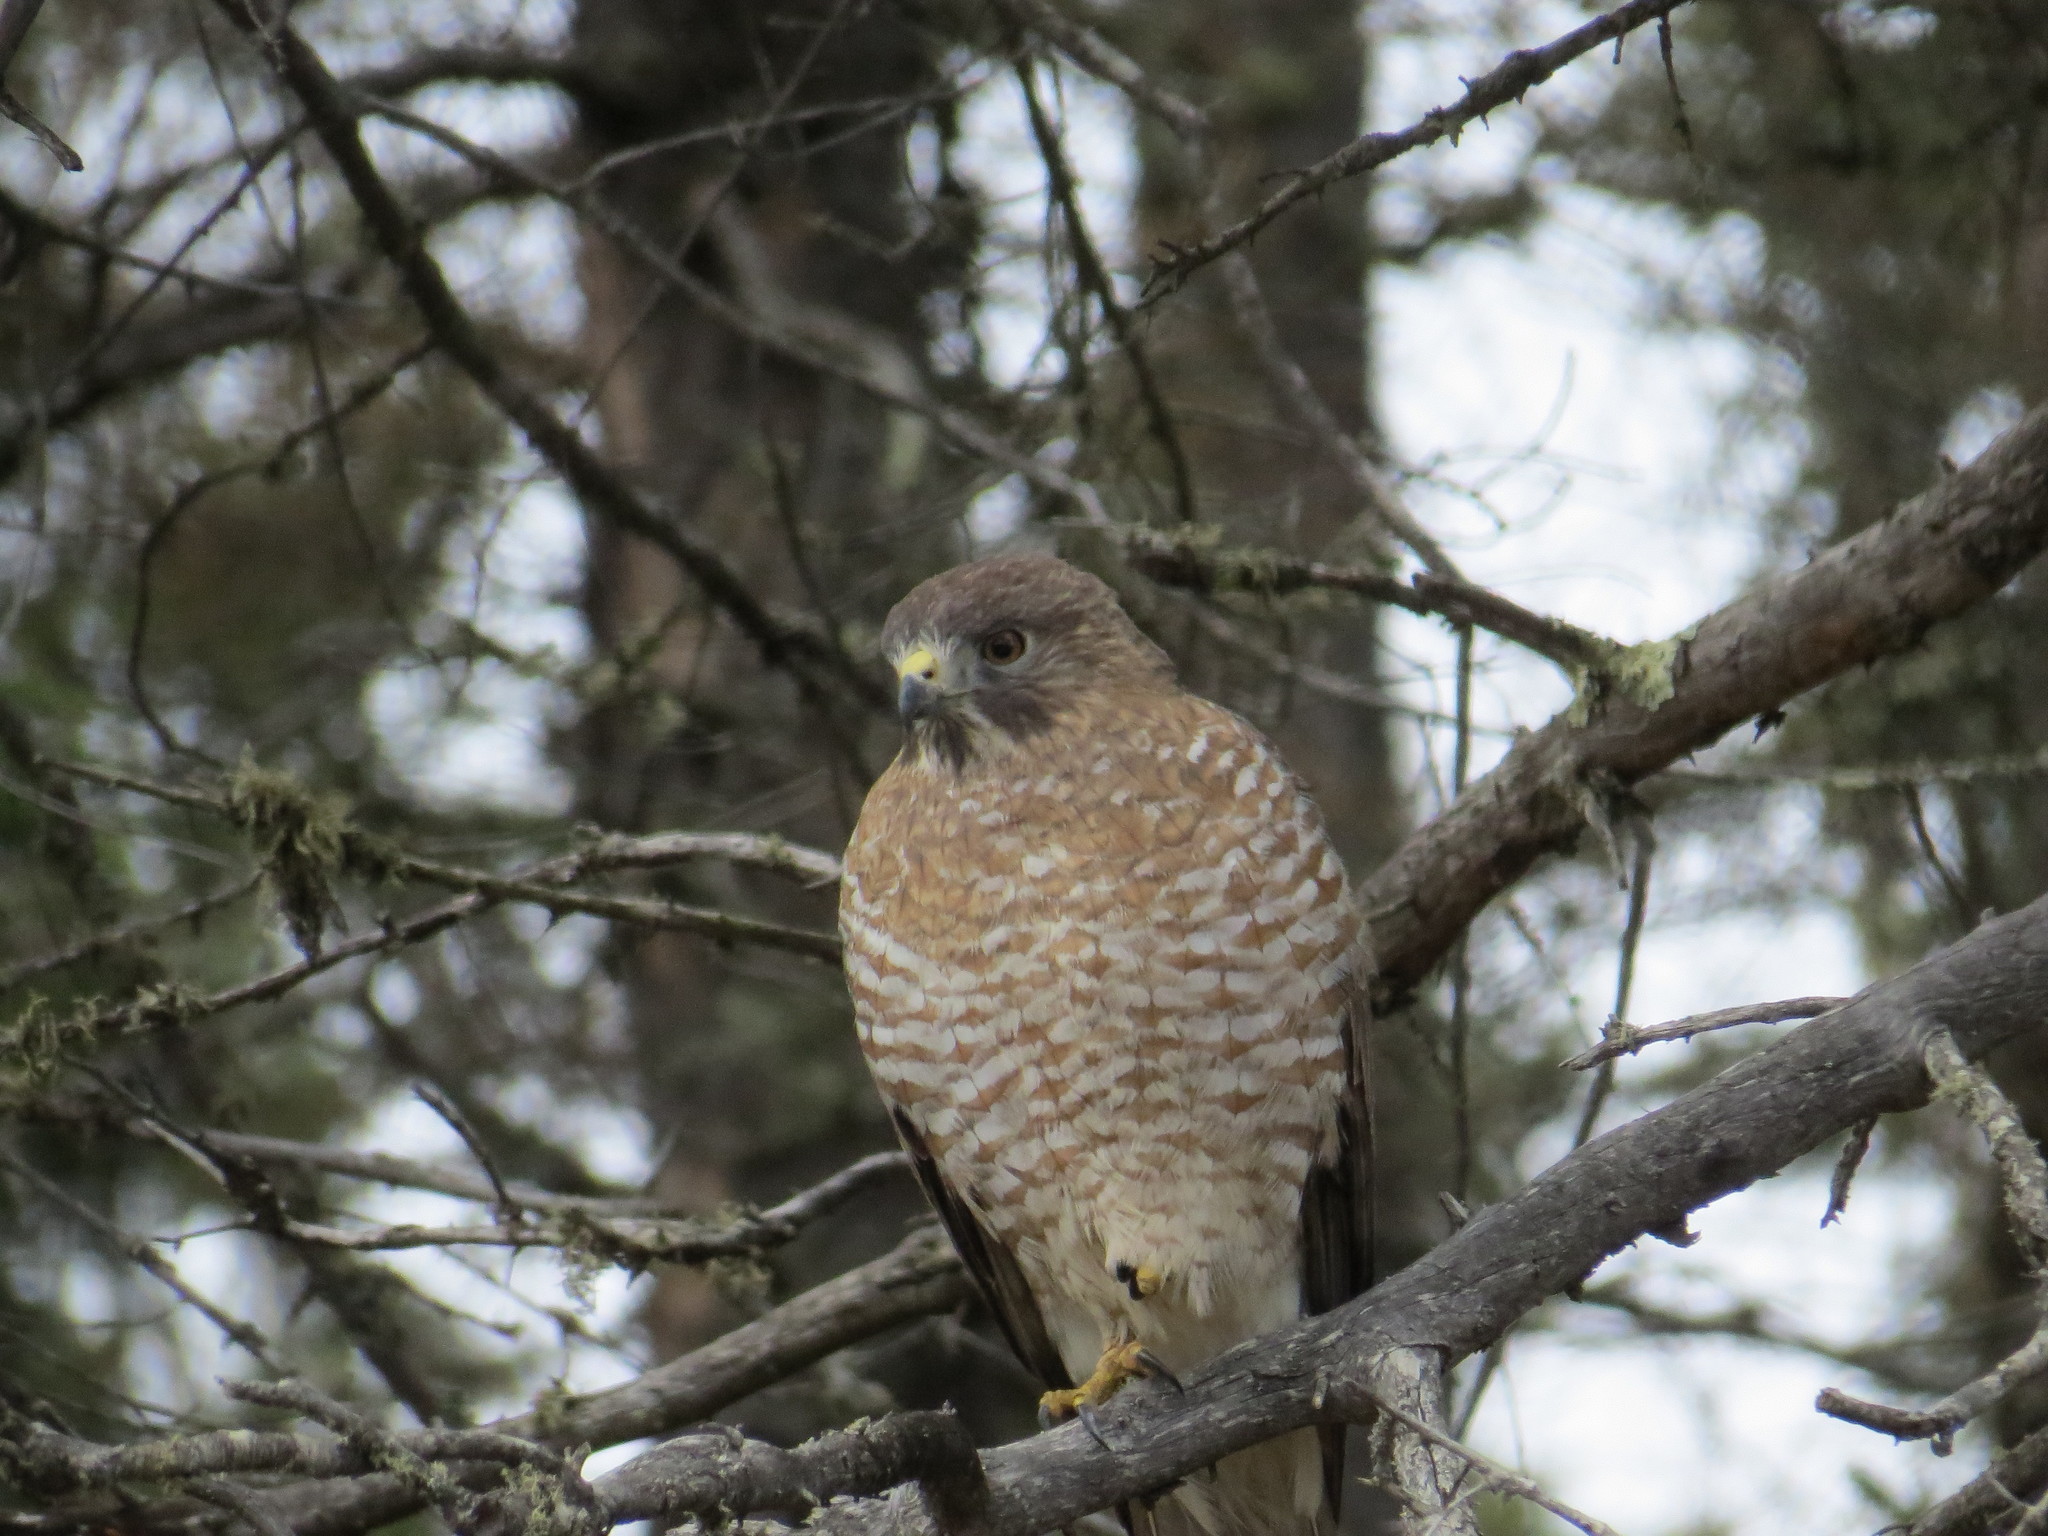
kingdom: Animalia
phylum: Chordata
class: Aves
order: Accipitriformes
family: Accipitridae
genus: Buteo
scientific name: Buteo platypterus
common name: Broad-winged hawk
